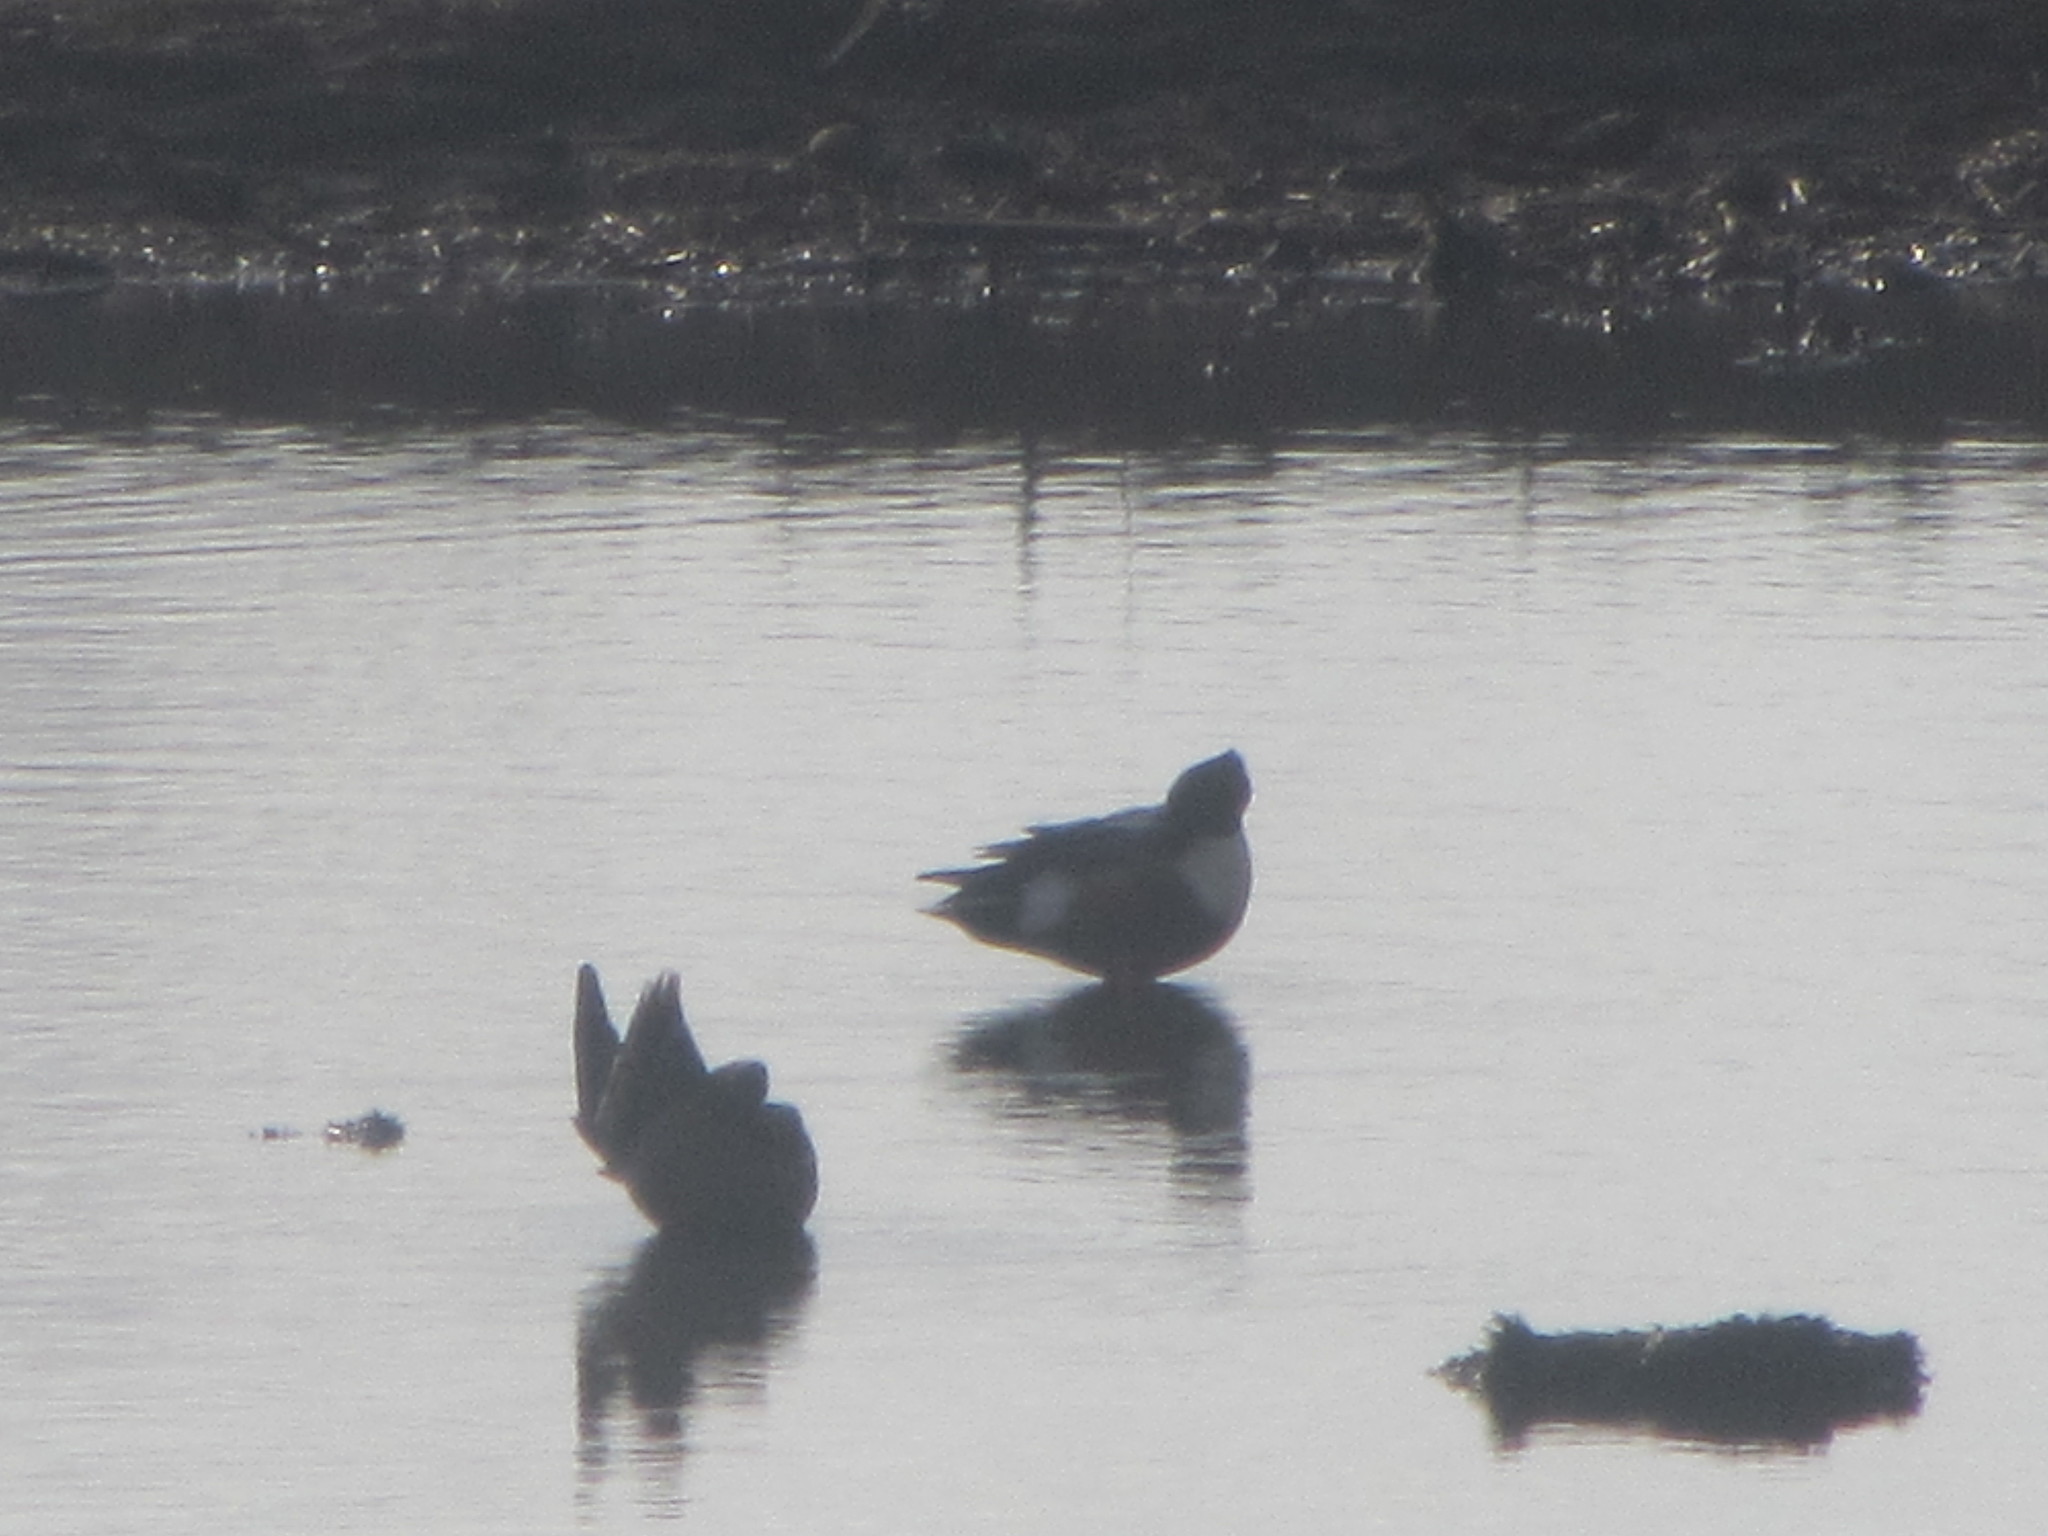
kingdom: Animalia
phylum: Chordata
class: Aves
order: Anseriformes
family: Anatidae
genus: Spatula
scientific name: Spatula clypeata
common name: Northern shoveler
